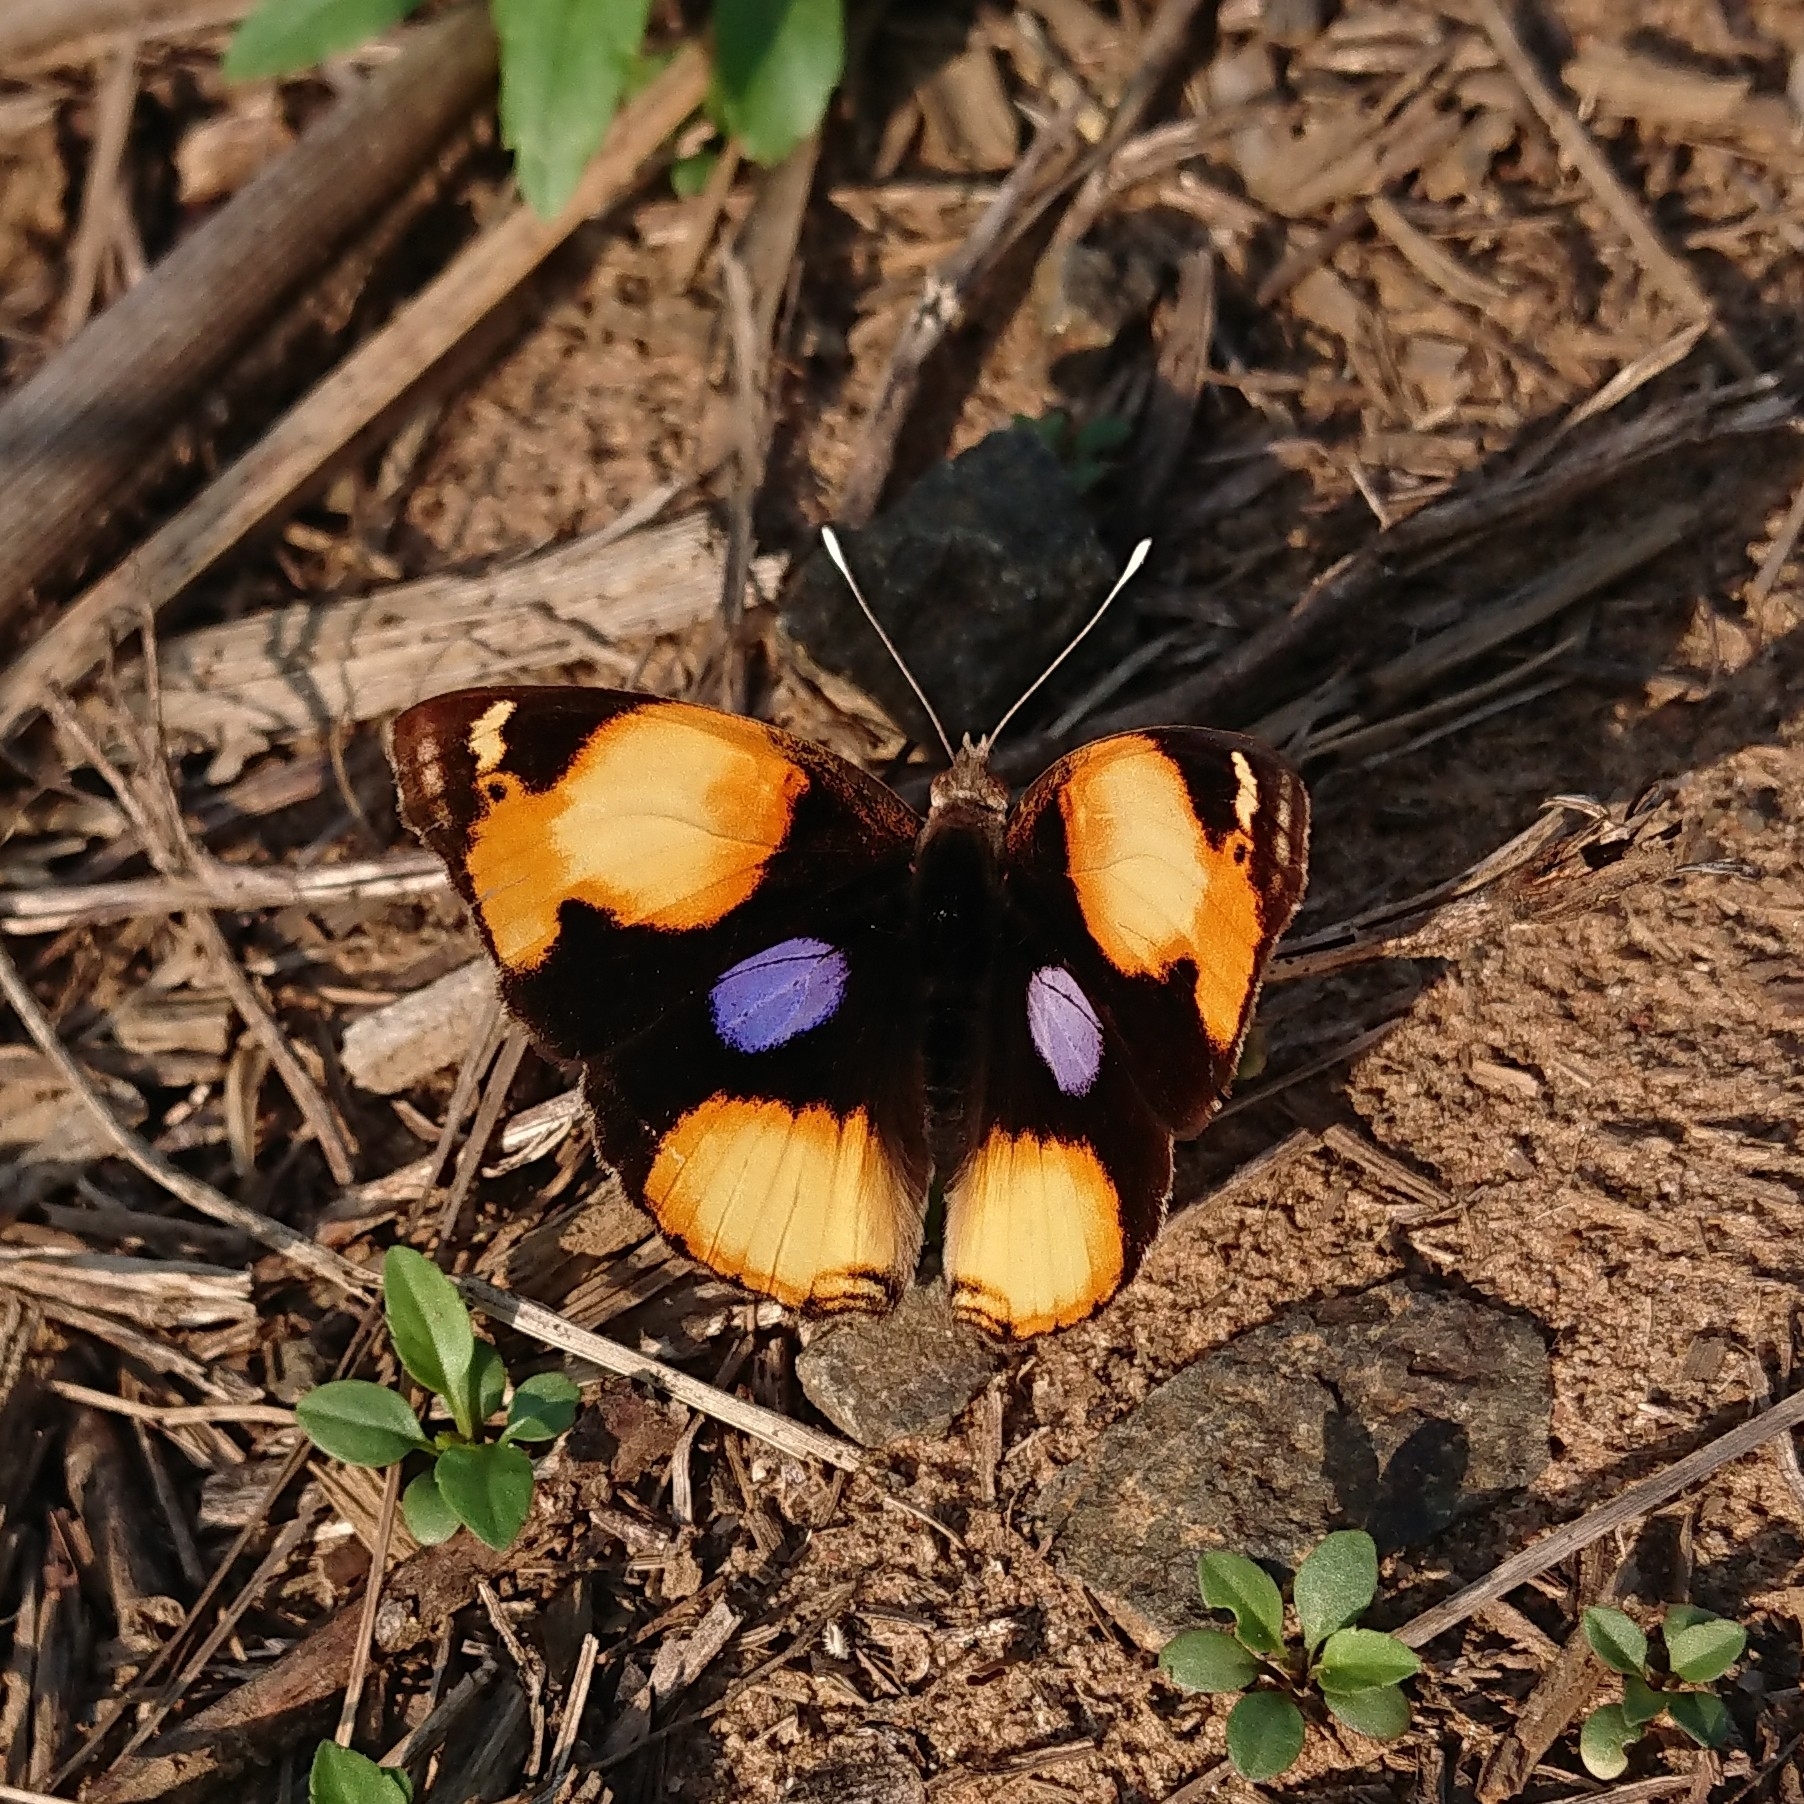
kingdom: Animalia
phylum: Arthropoda
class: Insecta
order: Lepidoptera
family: Nymphalidae
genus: Junonia
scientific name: Junonia hierta
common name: Yellow pansy
